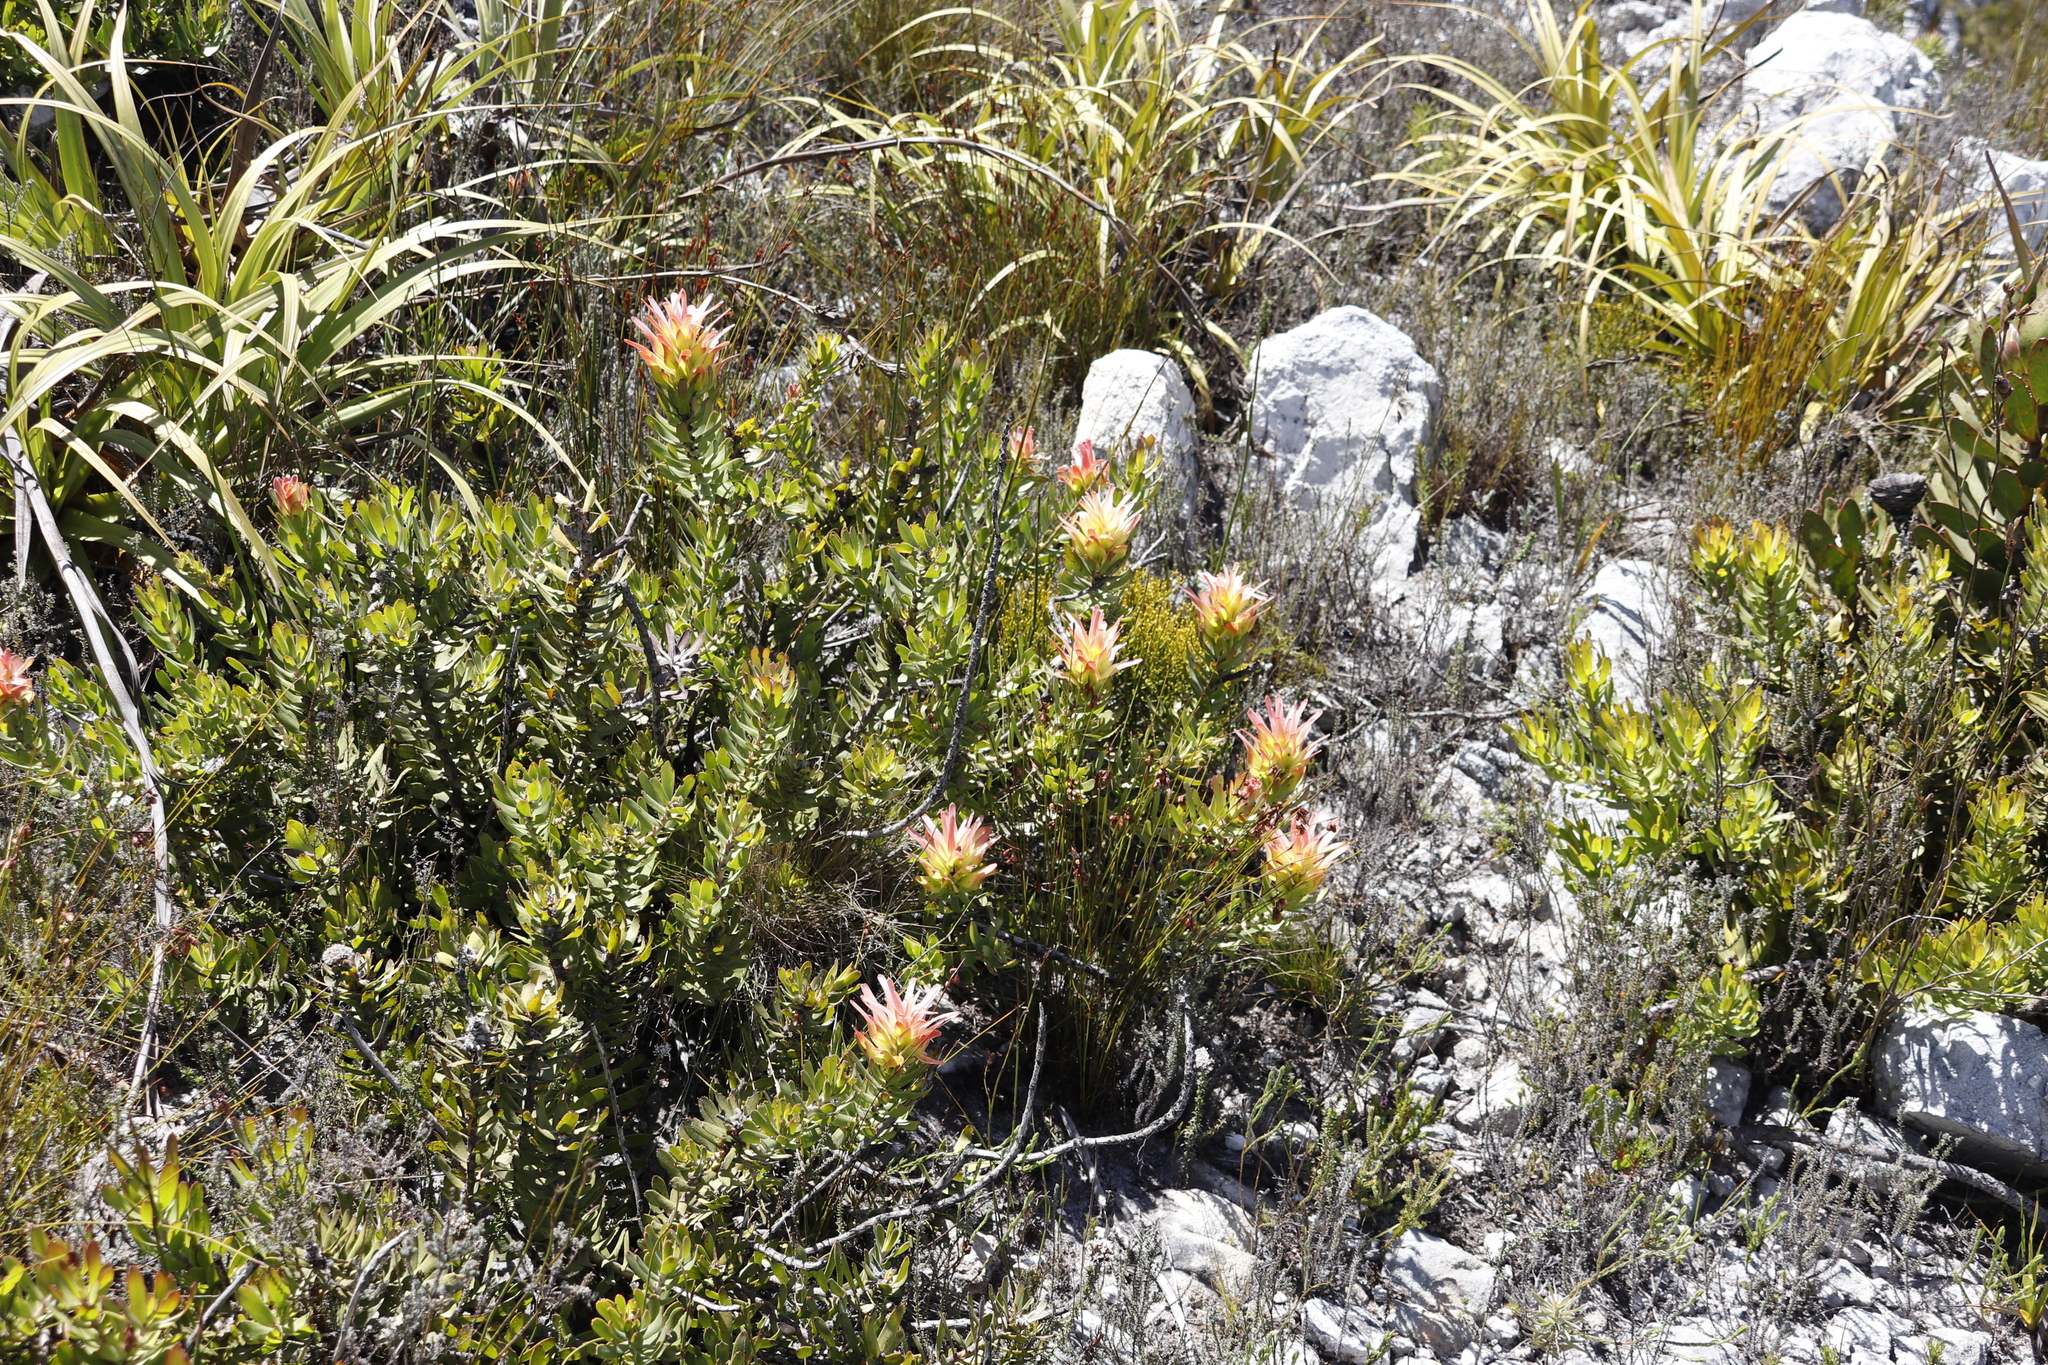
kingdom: Plantae
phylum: Tracheophyta
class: Magnoliopsida
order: Proteales
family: Proteaceae
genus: Mimetes
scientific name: Mimetes cucullatus
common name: Common pagoda
